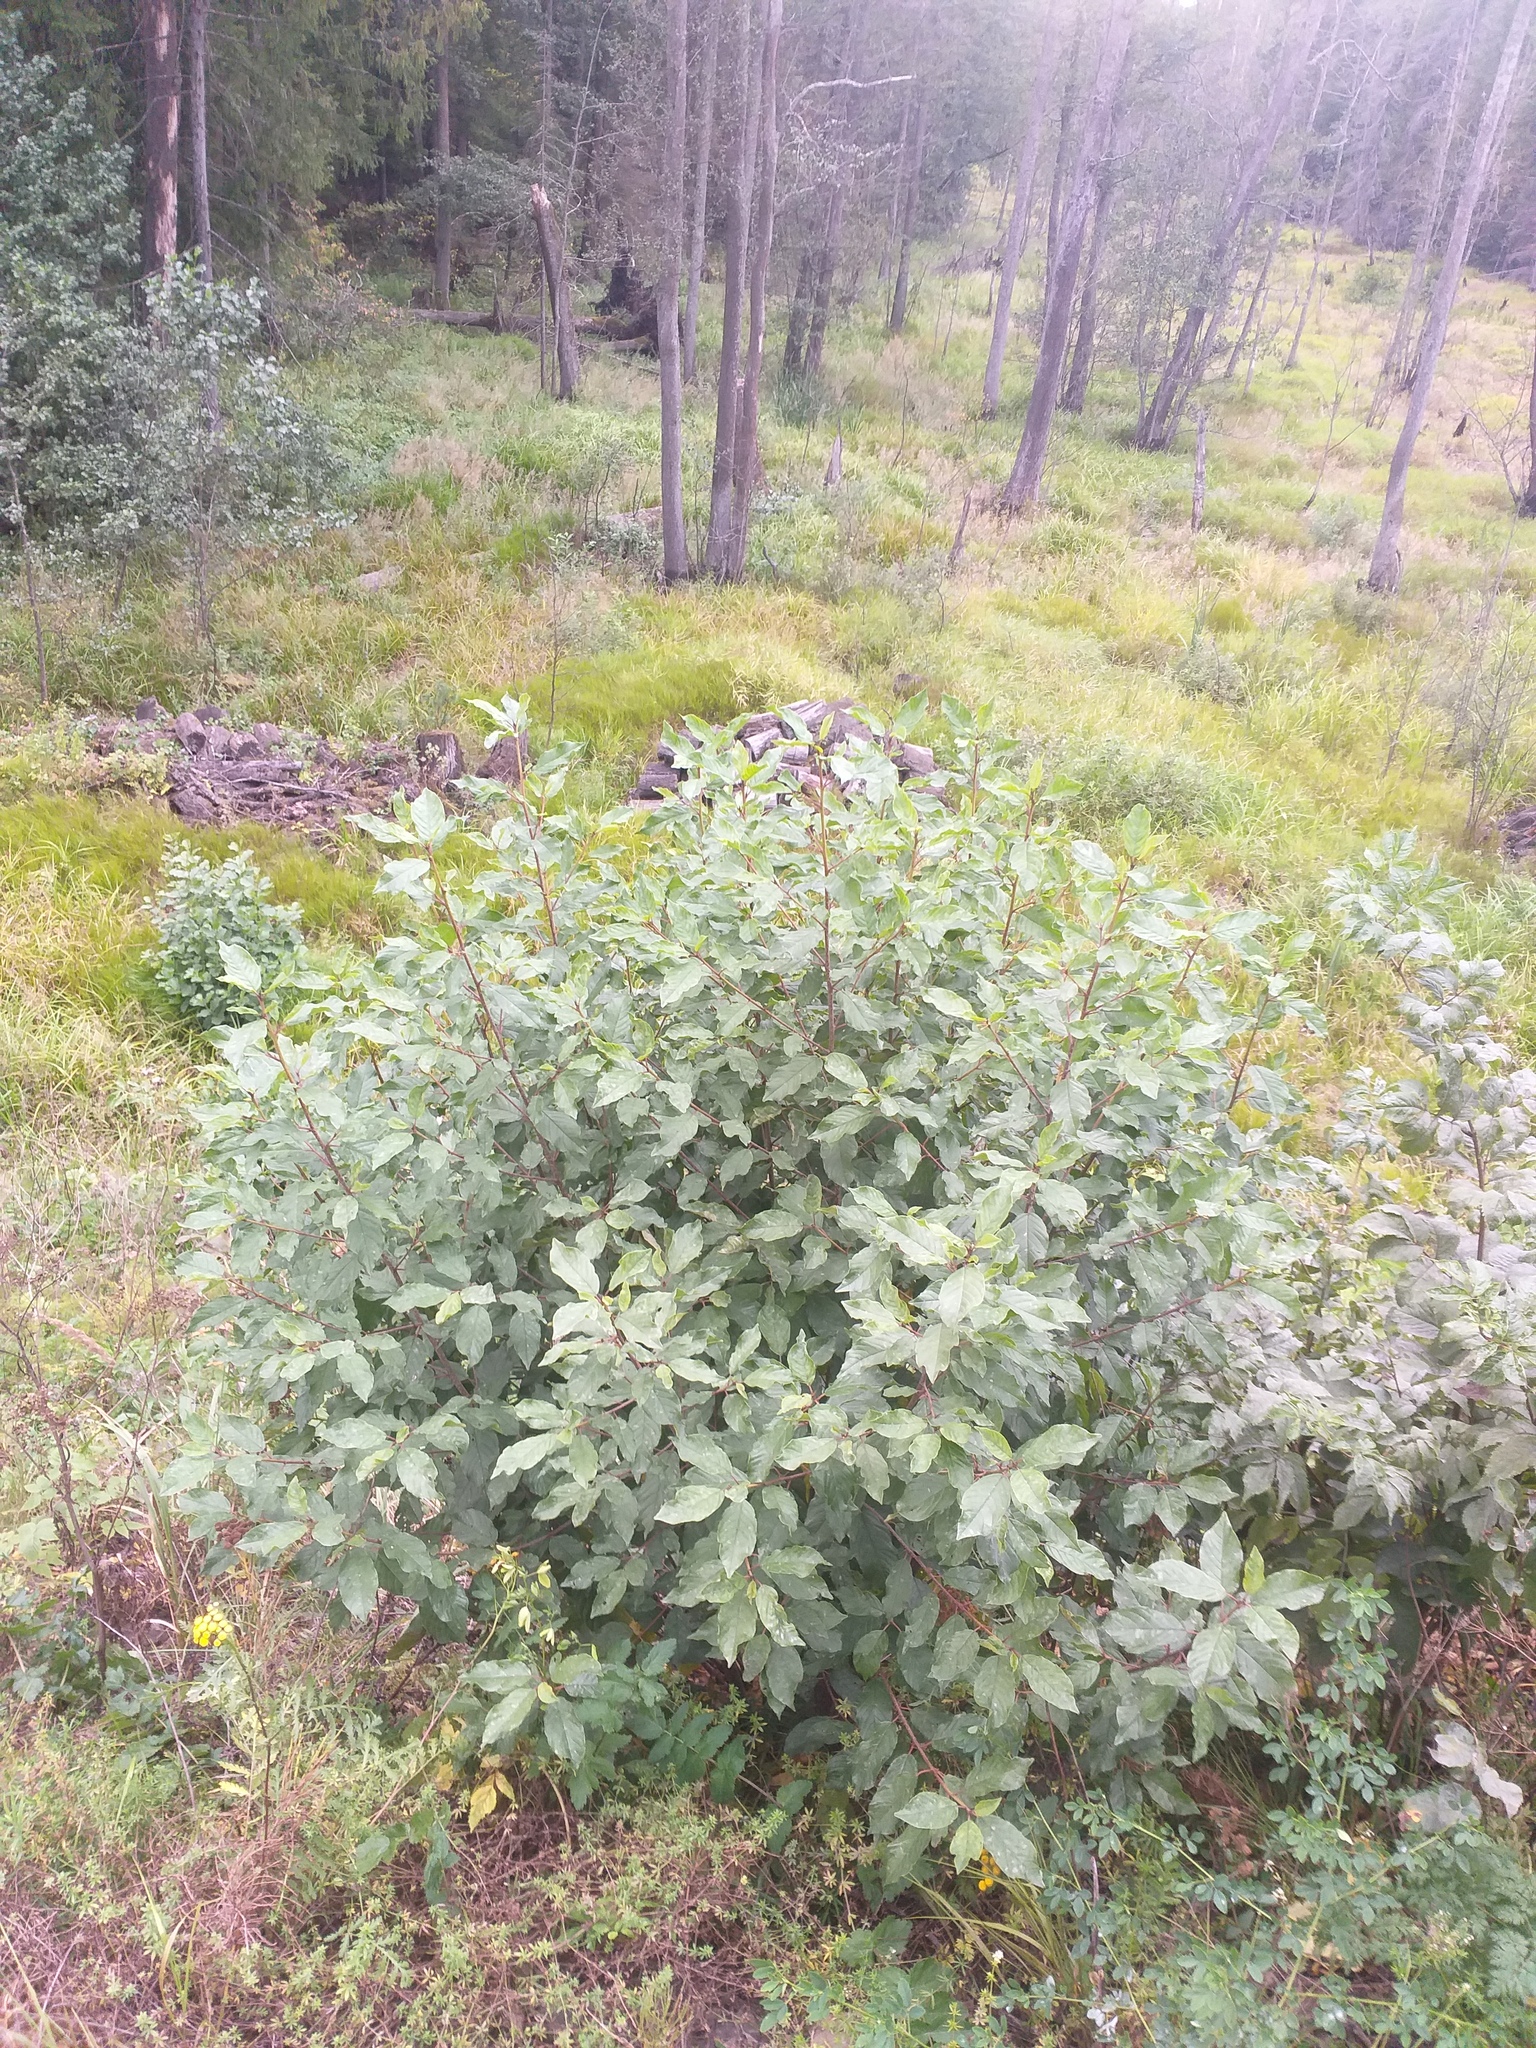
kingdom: Plantae
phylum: Tracheophyta
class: Magnoliopsida
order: Rosales
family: Rhamnaceae
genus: Frangula
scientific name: Frangula alnus
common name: Alder buckthorn
